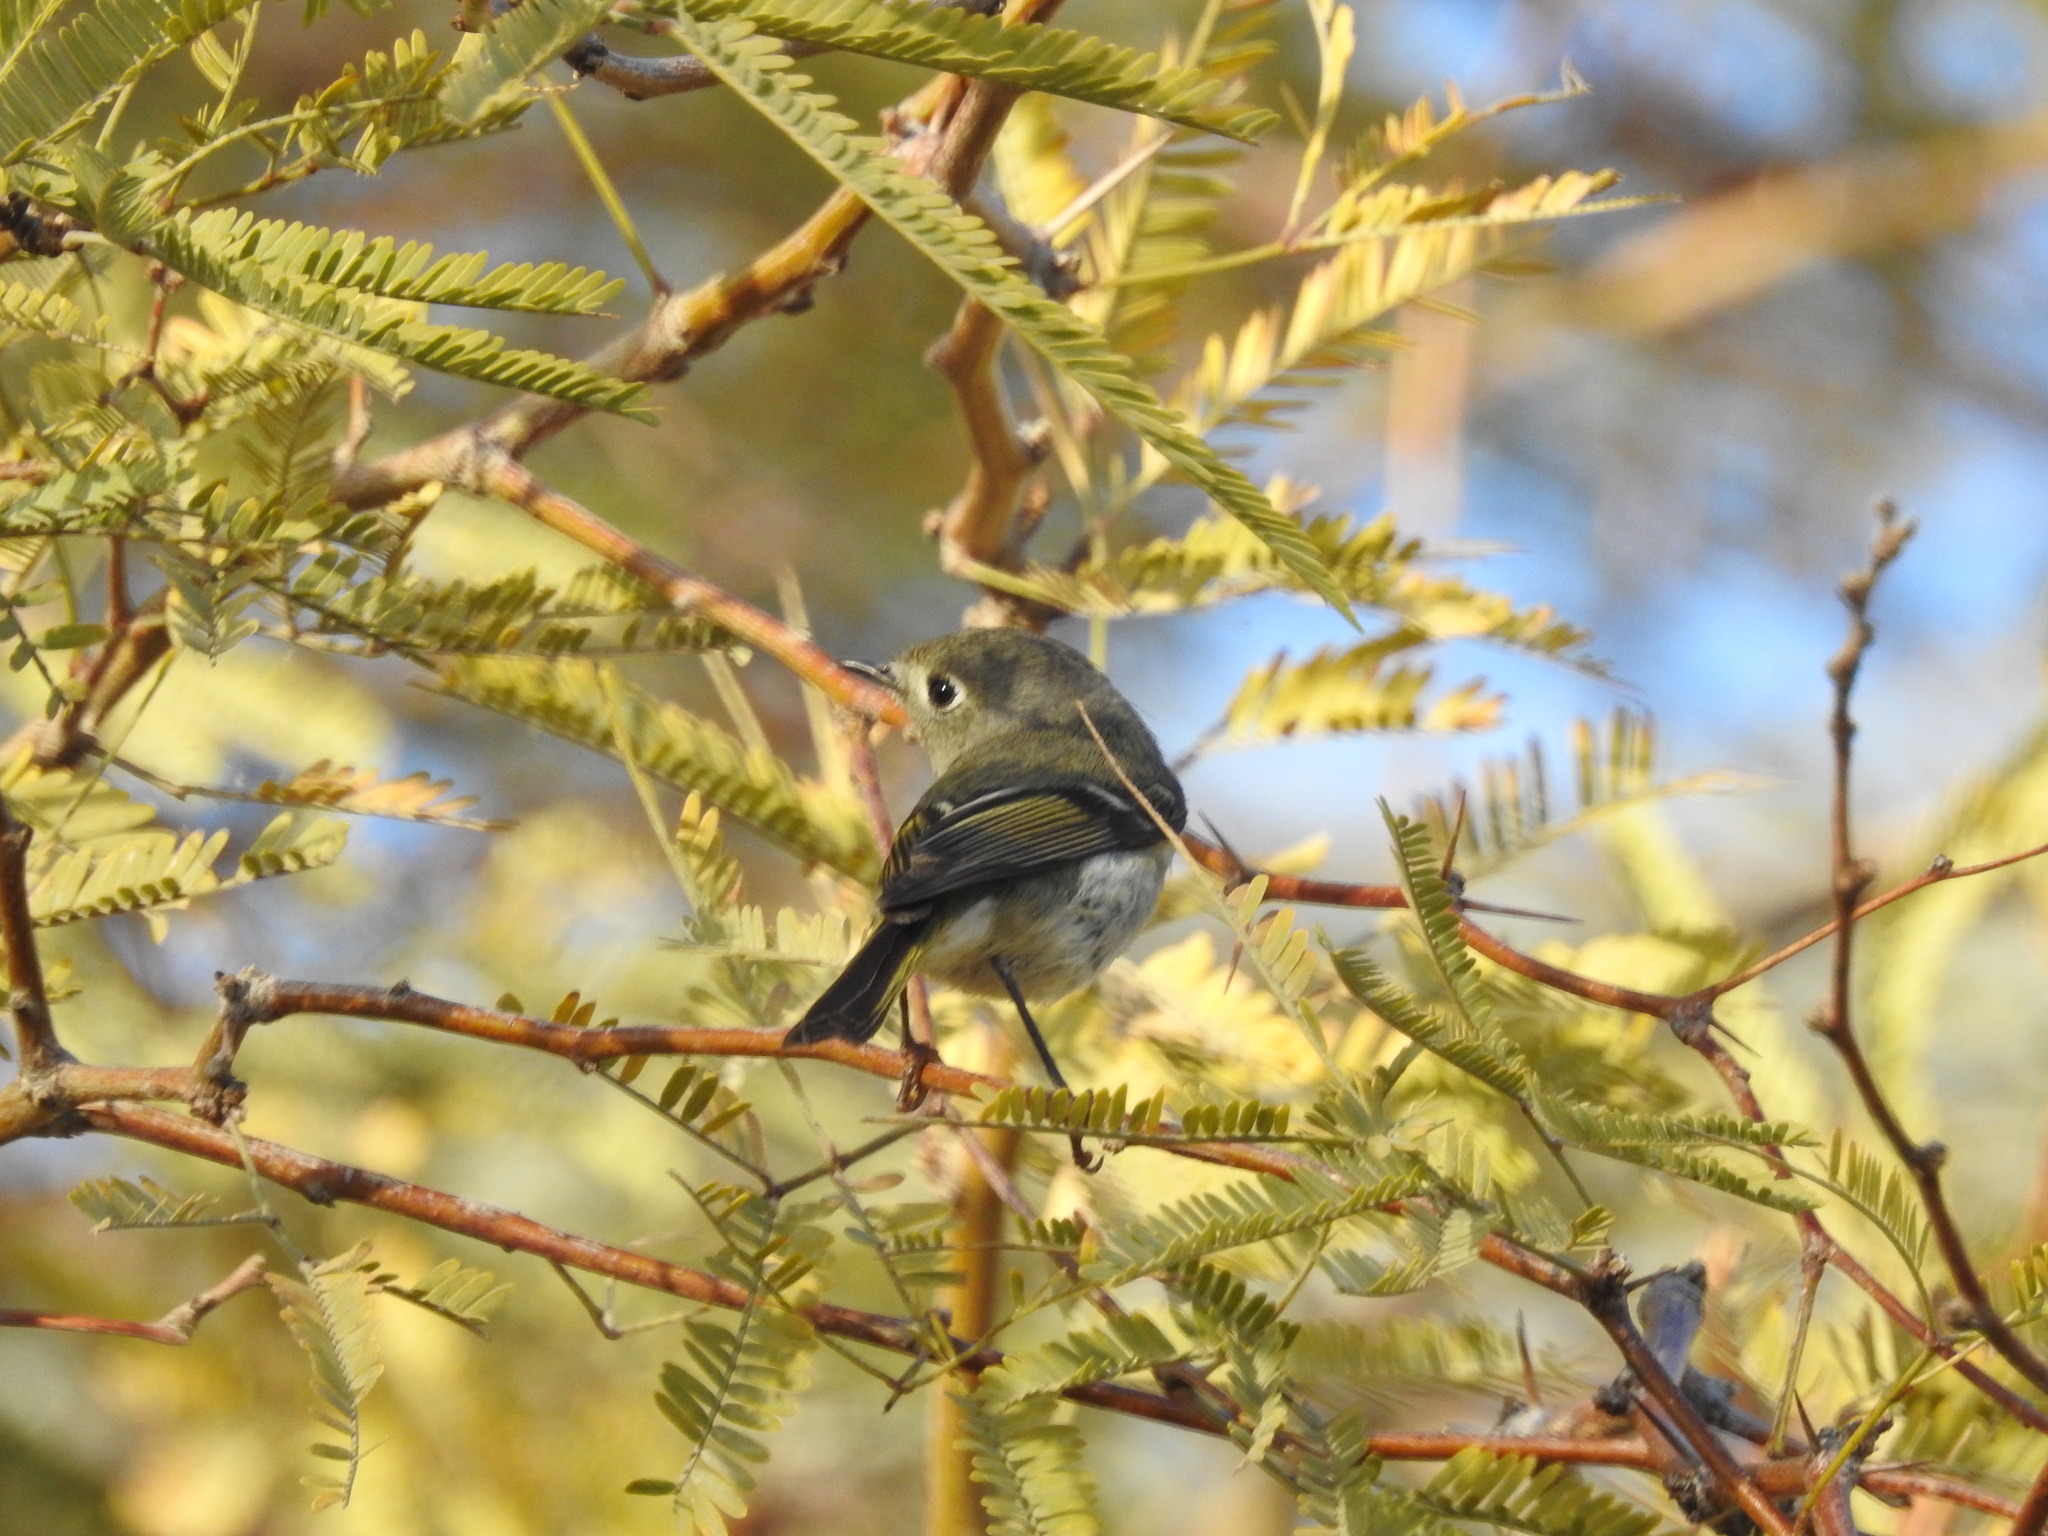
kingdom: Animalia
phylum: Chordata
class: Aves
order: Passeriformes
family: Regulidae
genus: Regulus
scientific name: Regulus calendula
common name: Ruby-crowned kinglet
